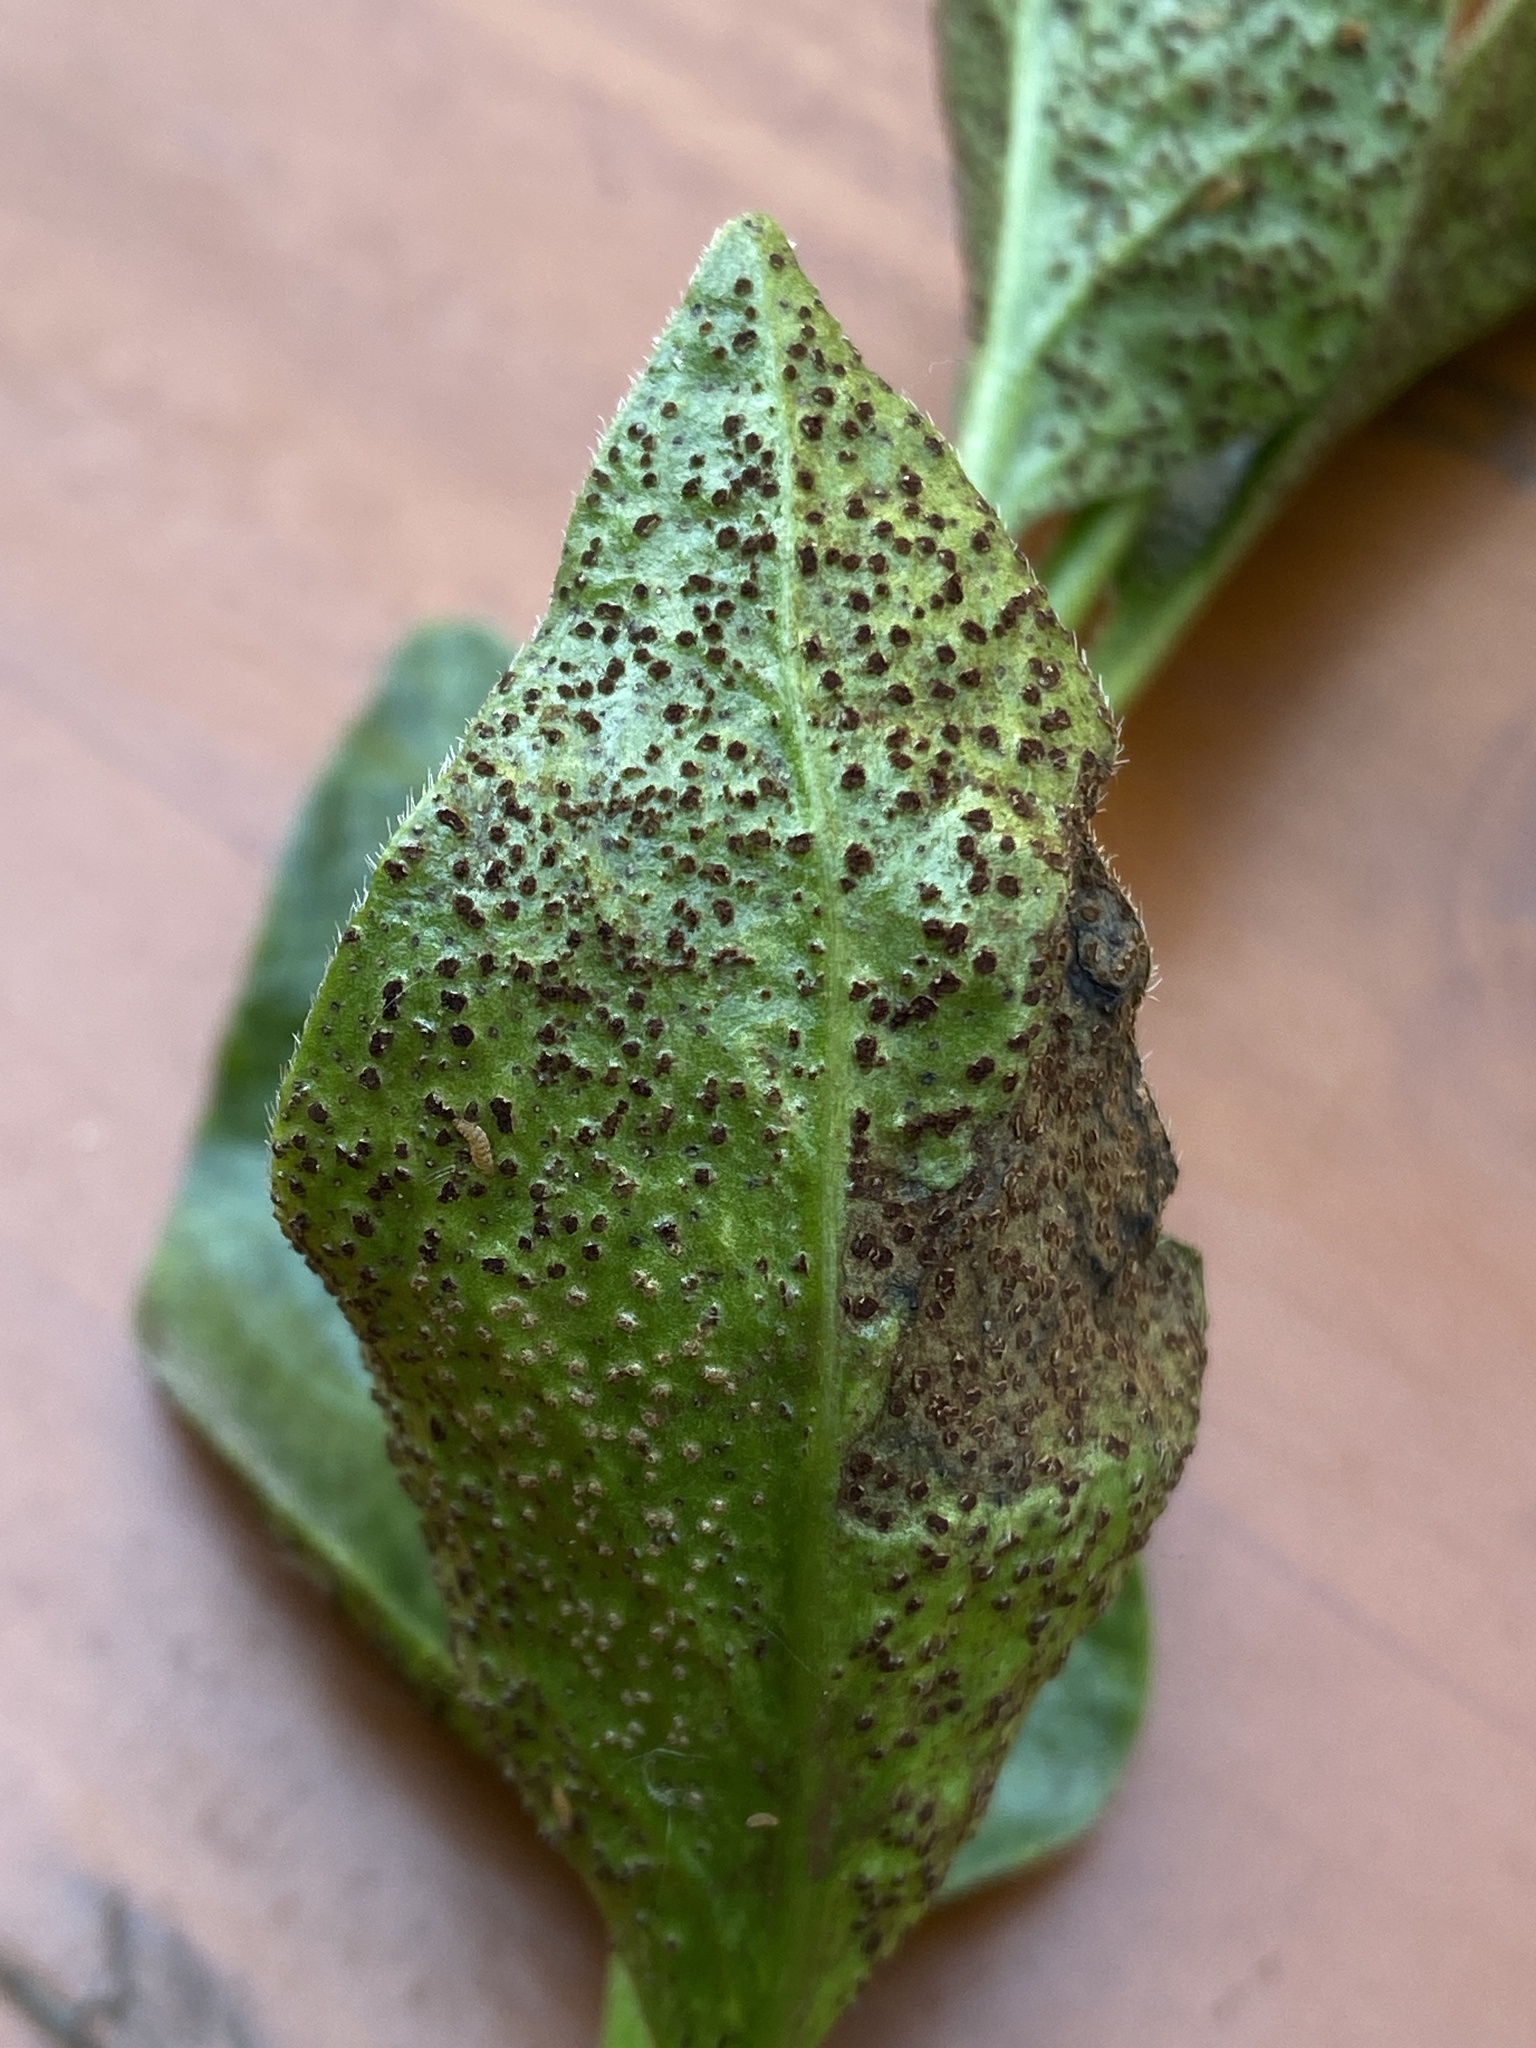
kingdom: Fungi
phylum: Basidiomycota
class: Pucciniomycetes
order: Pucciniales
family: Pucciniaceae
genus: Puccinia
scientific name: Puccinia vincae
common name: Periwinkle rust
